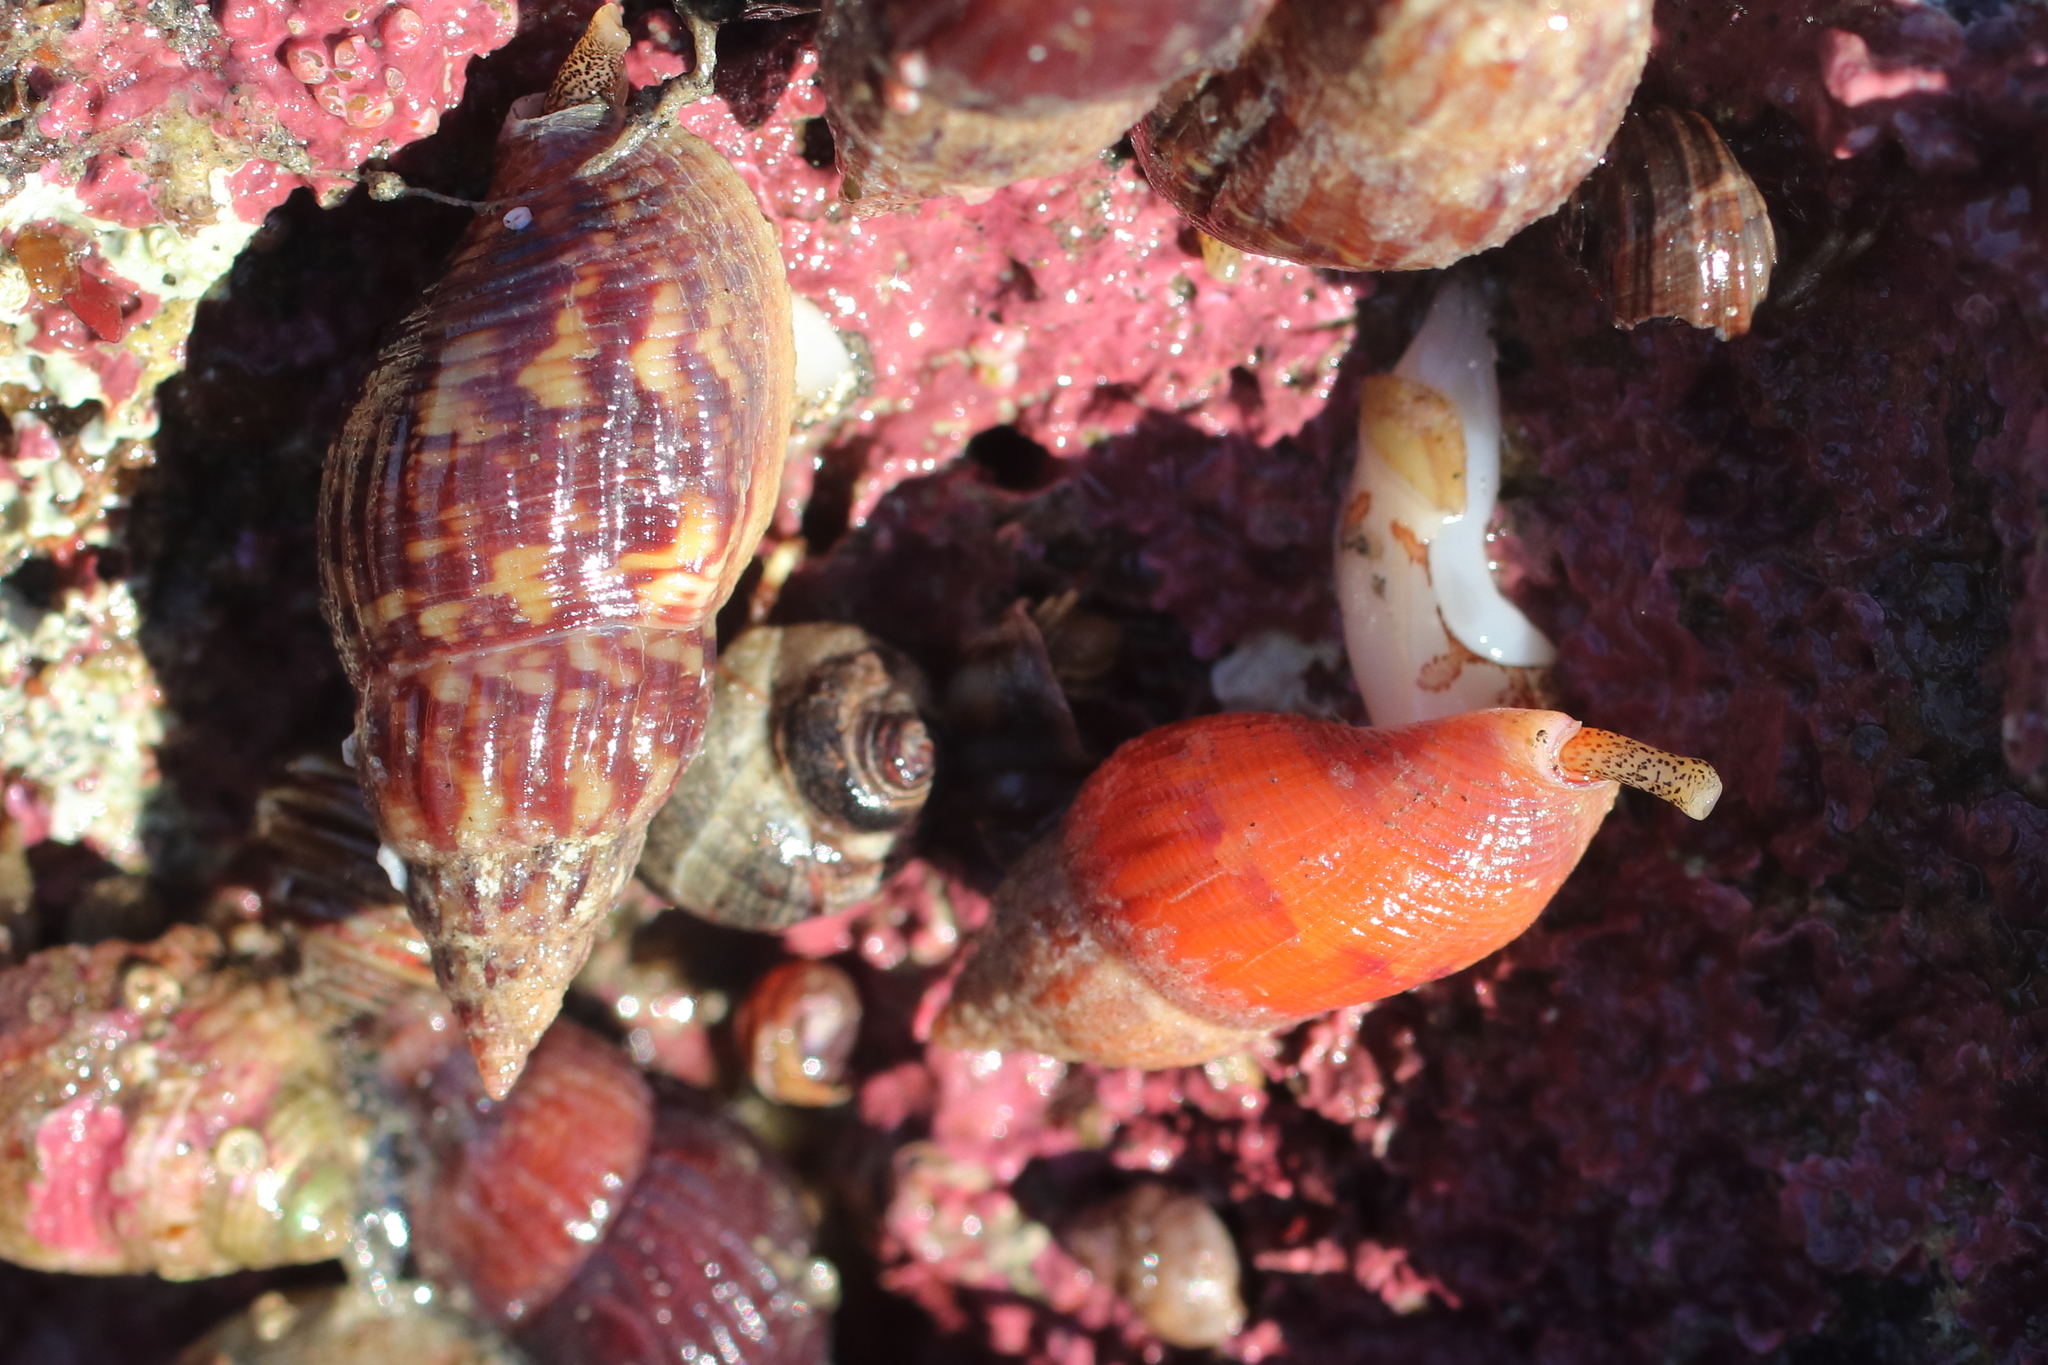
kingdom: Animalia
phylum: Mollusca
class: Gastropoda
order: Neogastropoda
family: Columbellidae
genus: Amphissa
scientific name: Amphissa columbiana
